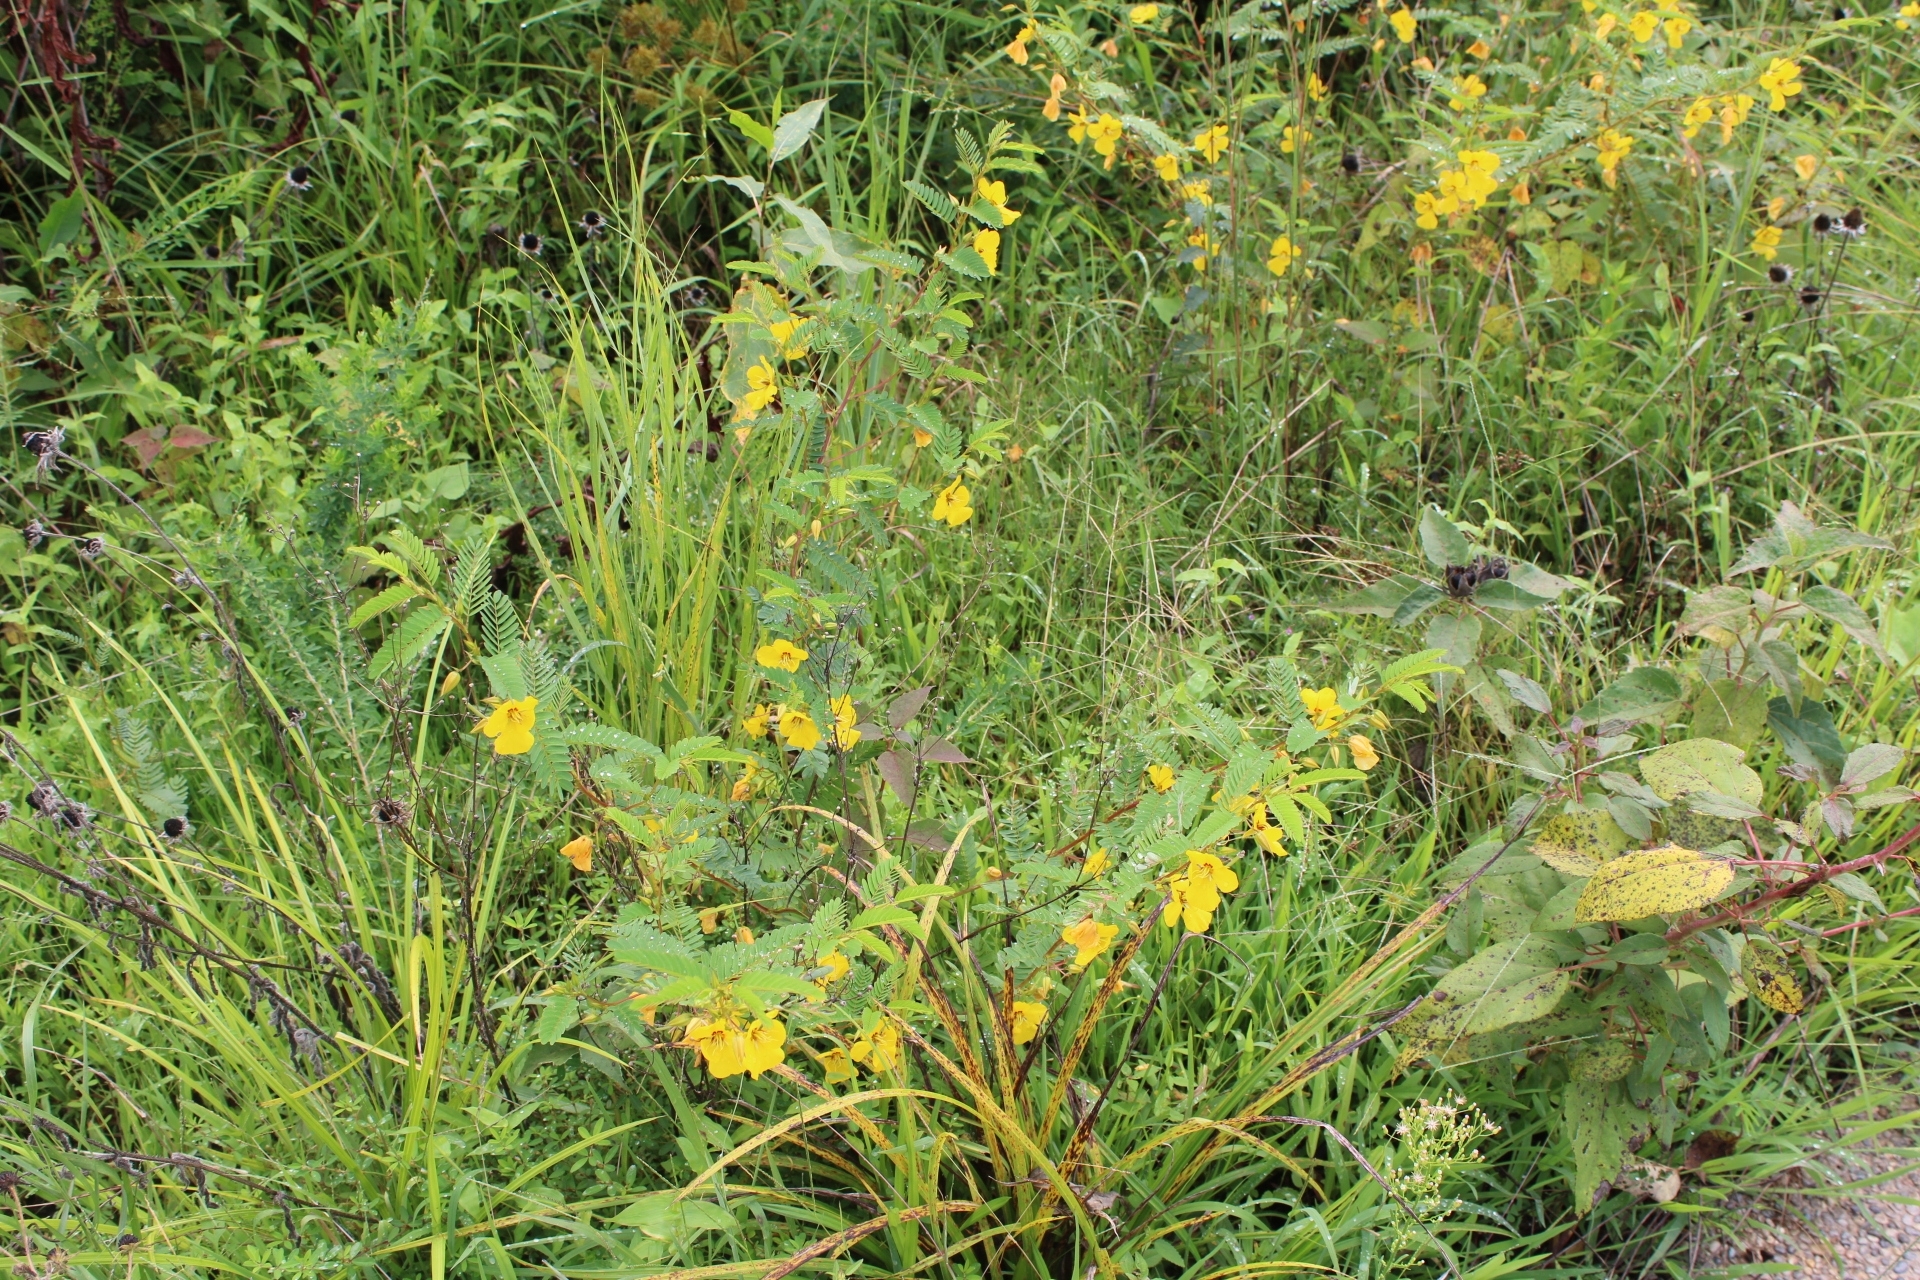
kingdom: Plantae
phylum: Tracheophyta
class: Magnoliopsida
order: Fabales
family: Fabaceae
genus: Chamaecrista
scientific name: Chamaecrista fasciculata
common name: Golden cassia
